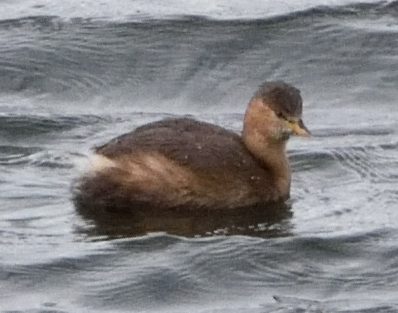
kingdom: Animalia
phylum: Chordata
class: Aves
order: Podicipediformes
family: Podicipedidae
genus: Tachybaptus
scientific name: Tachybaptus ruficollis
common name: Little grebe
